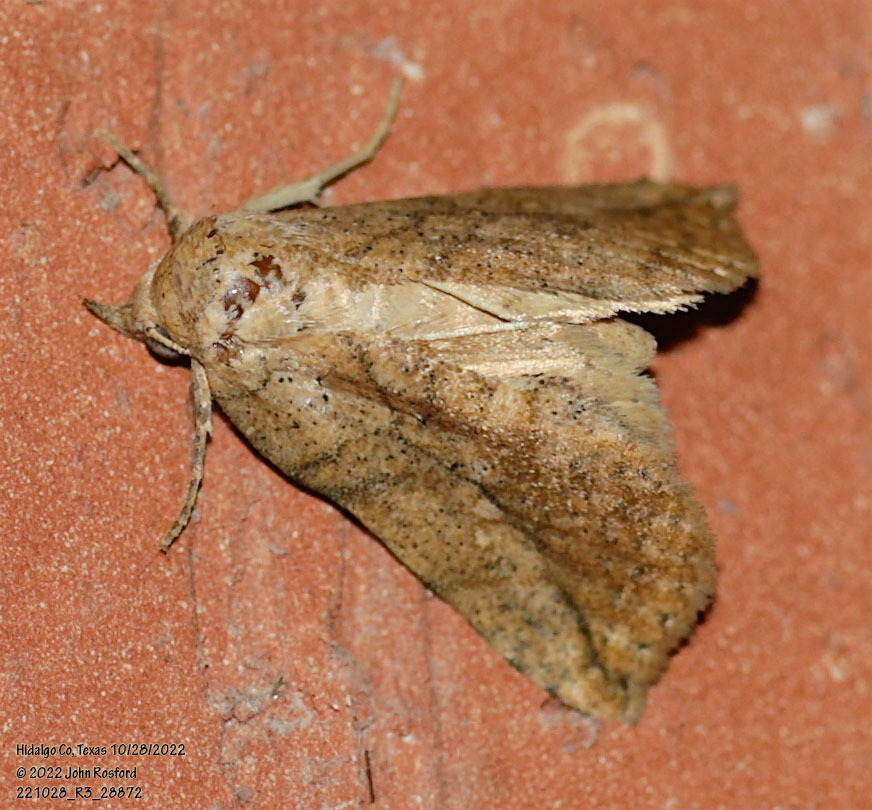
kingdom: Animalia
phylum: Arthropoda
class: Insecta
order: Lepidoptera
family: Erebidae
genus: Isogona
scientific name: Isogona snowi
